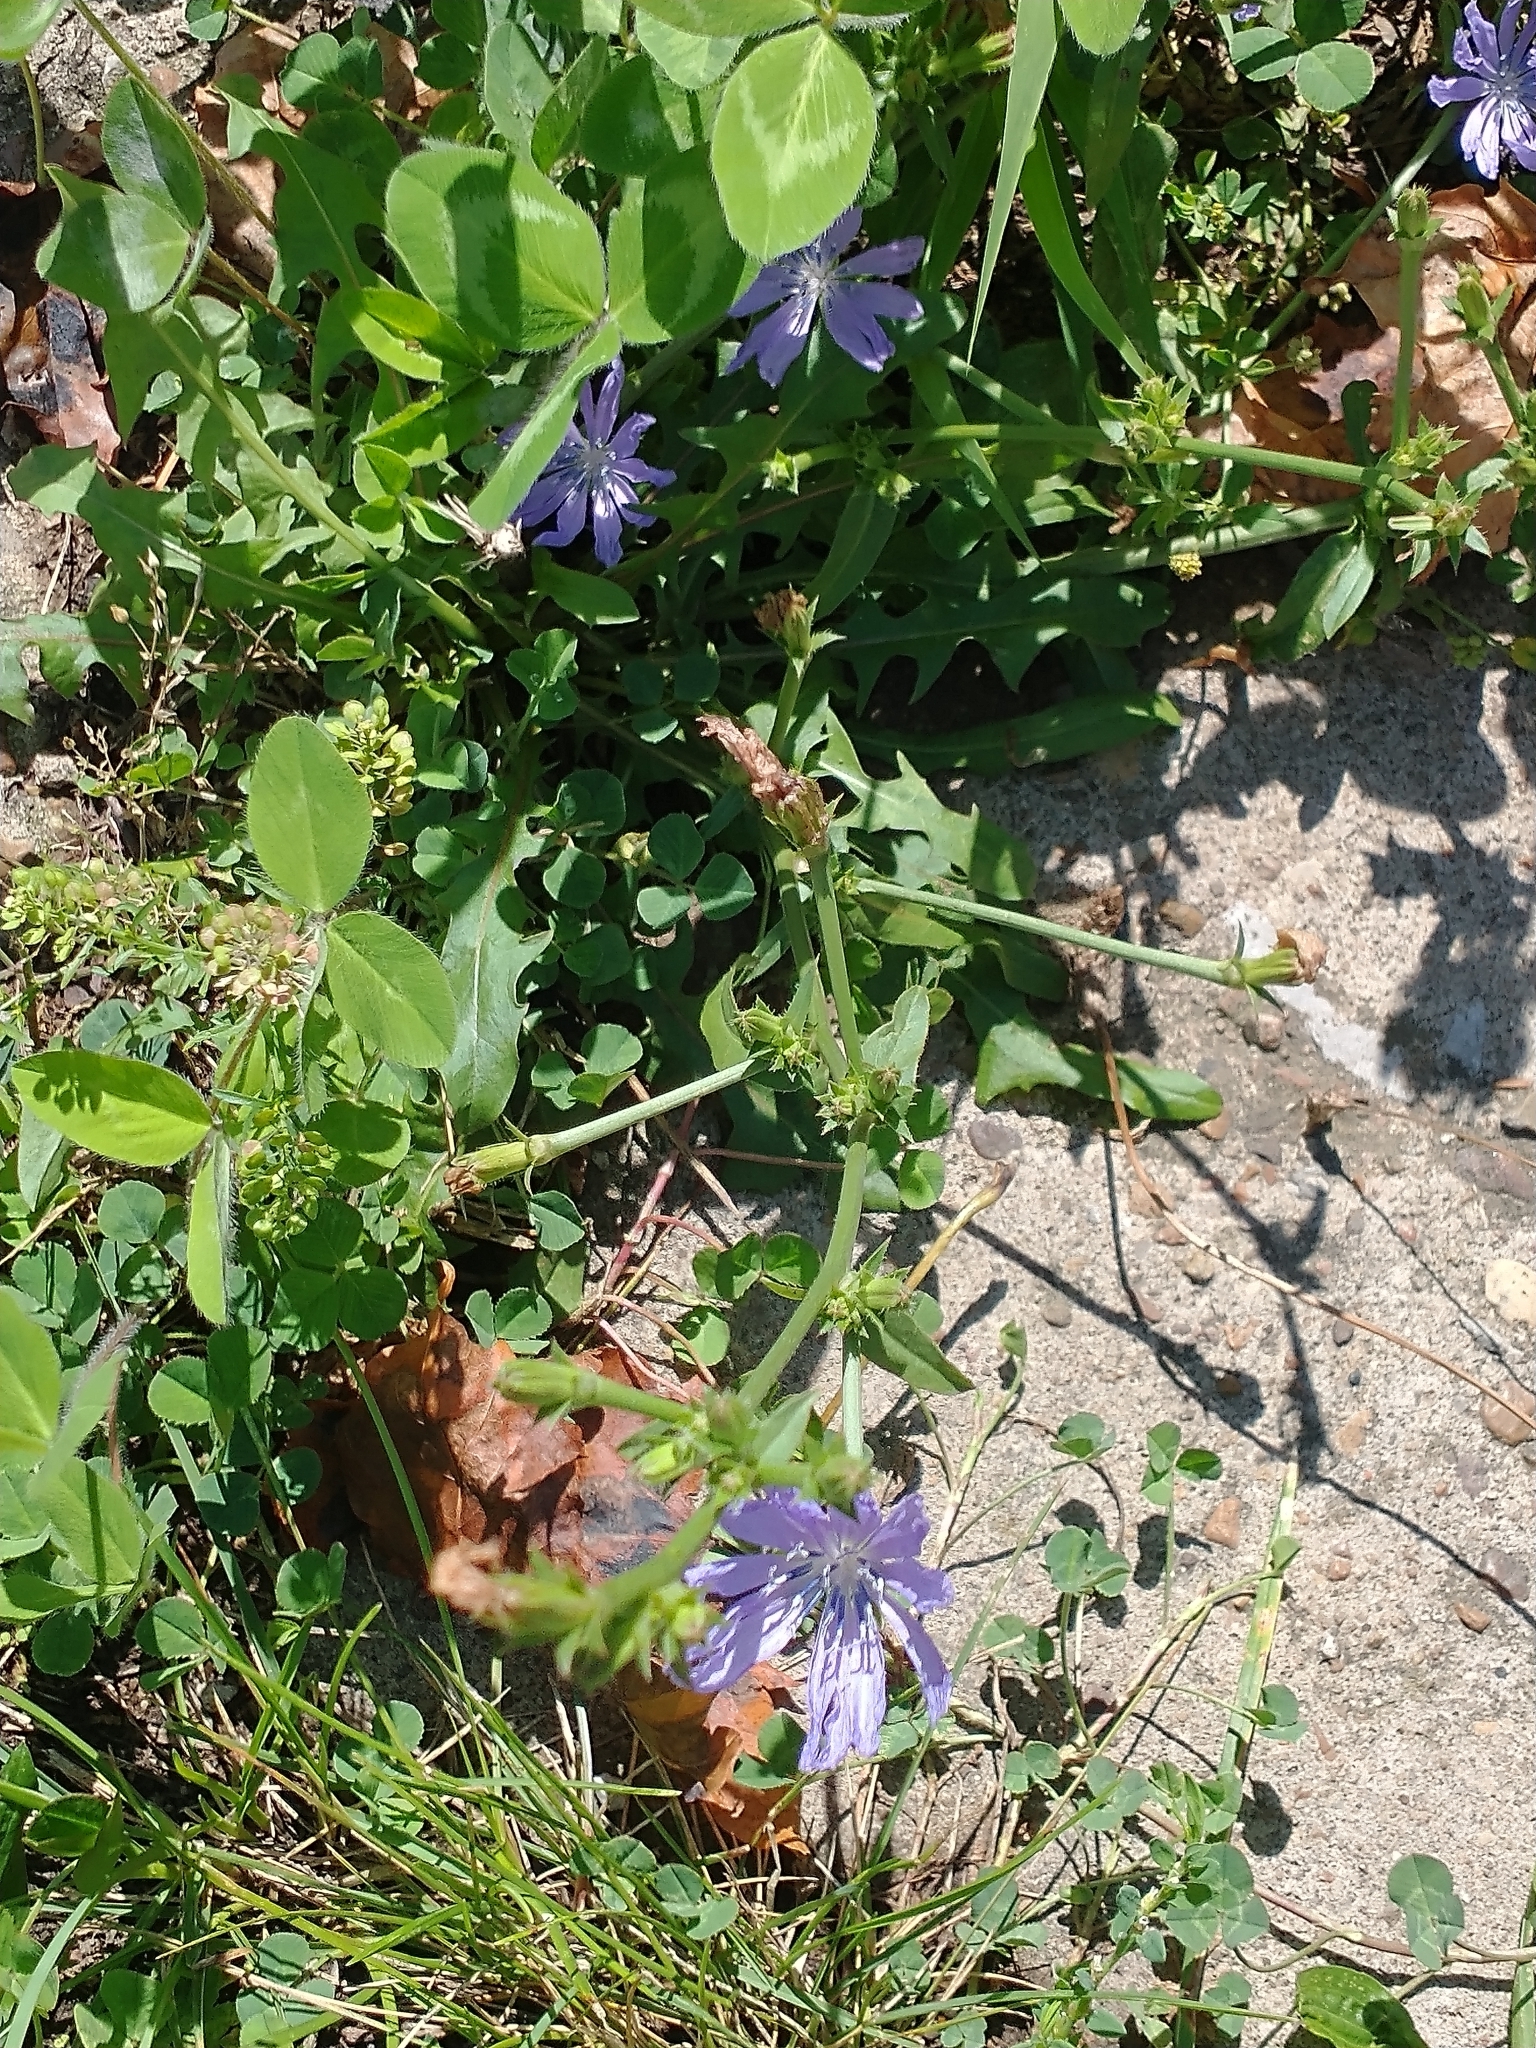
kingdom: Plantae
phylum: Tracheophyta
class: Magnoliopsida
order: Asterales
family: Asteraceae
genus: Cichorium
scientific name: Cichorium intybus
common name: Chicory
